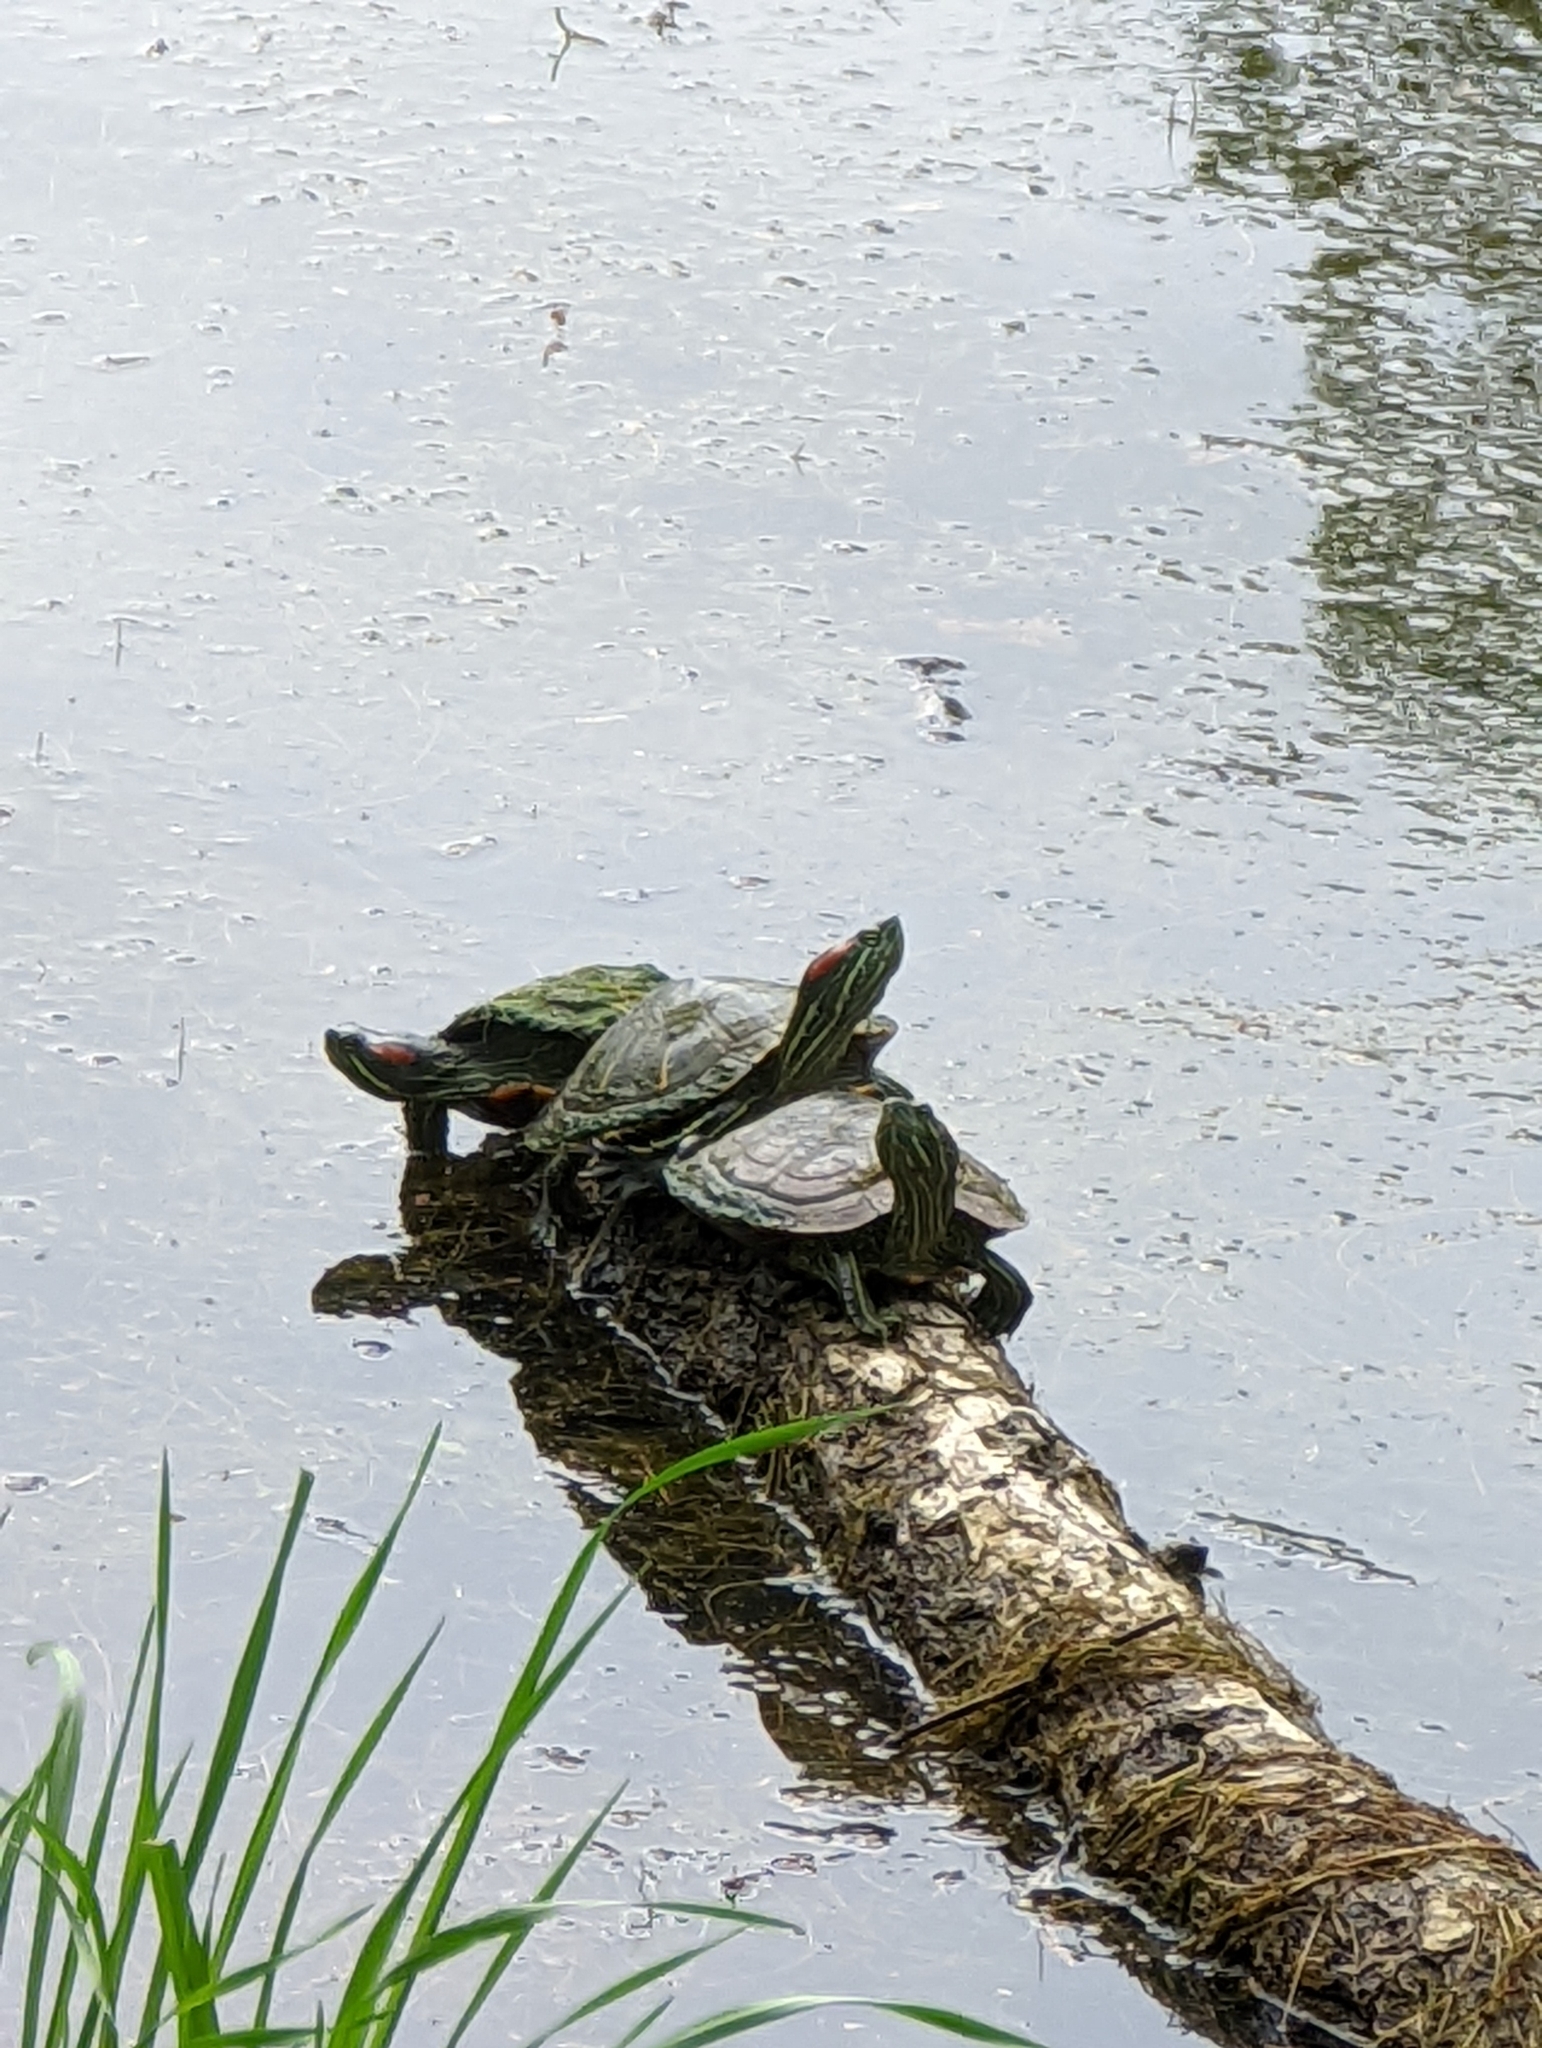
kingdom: Animalia
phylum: Chordata
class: Testudines
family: Emydidae
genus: Trachemys
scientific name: Trachemys scripta
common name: Slider
